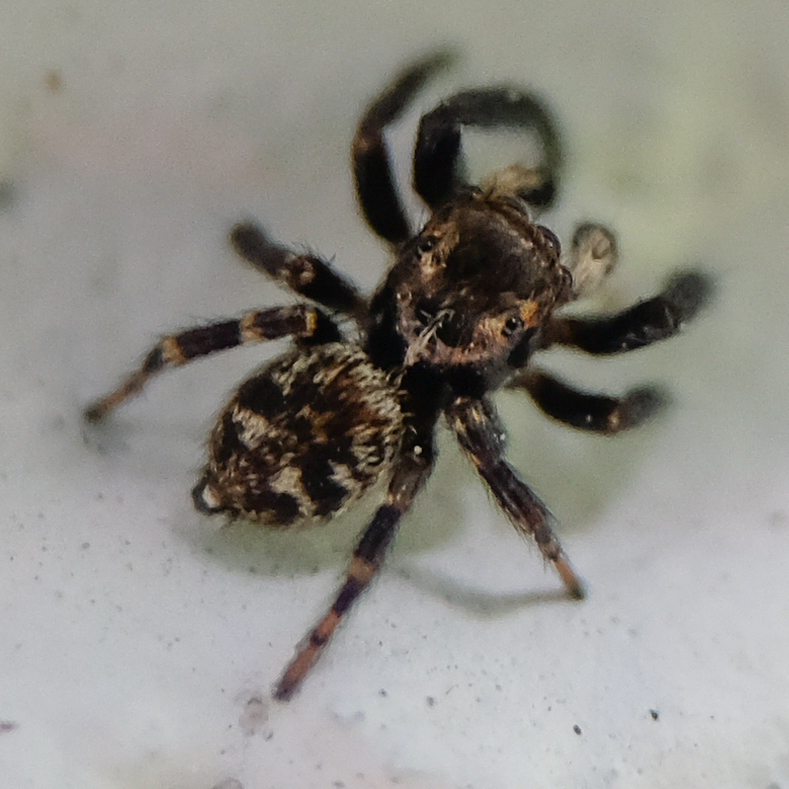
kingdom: Animalia
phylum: Arthropoda
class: Arachnida
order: Araneae
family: Salticidae
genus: Pseudeuophrys
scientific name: Pseudeuophrys erratica
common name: Jumping spider
